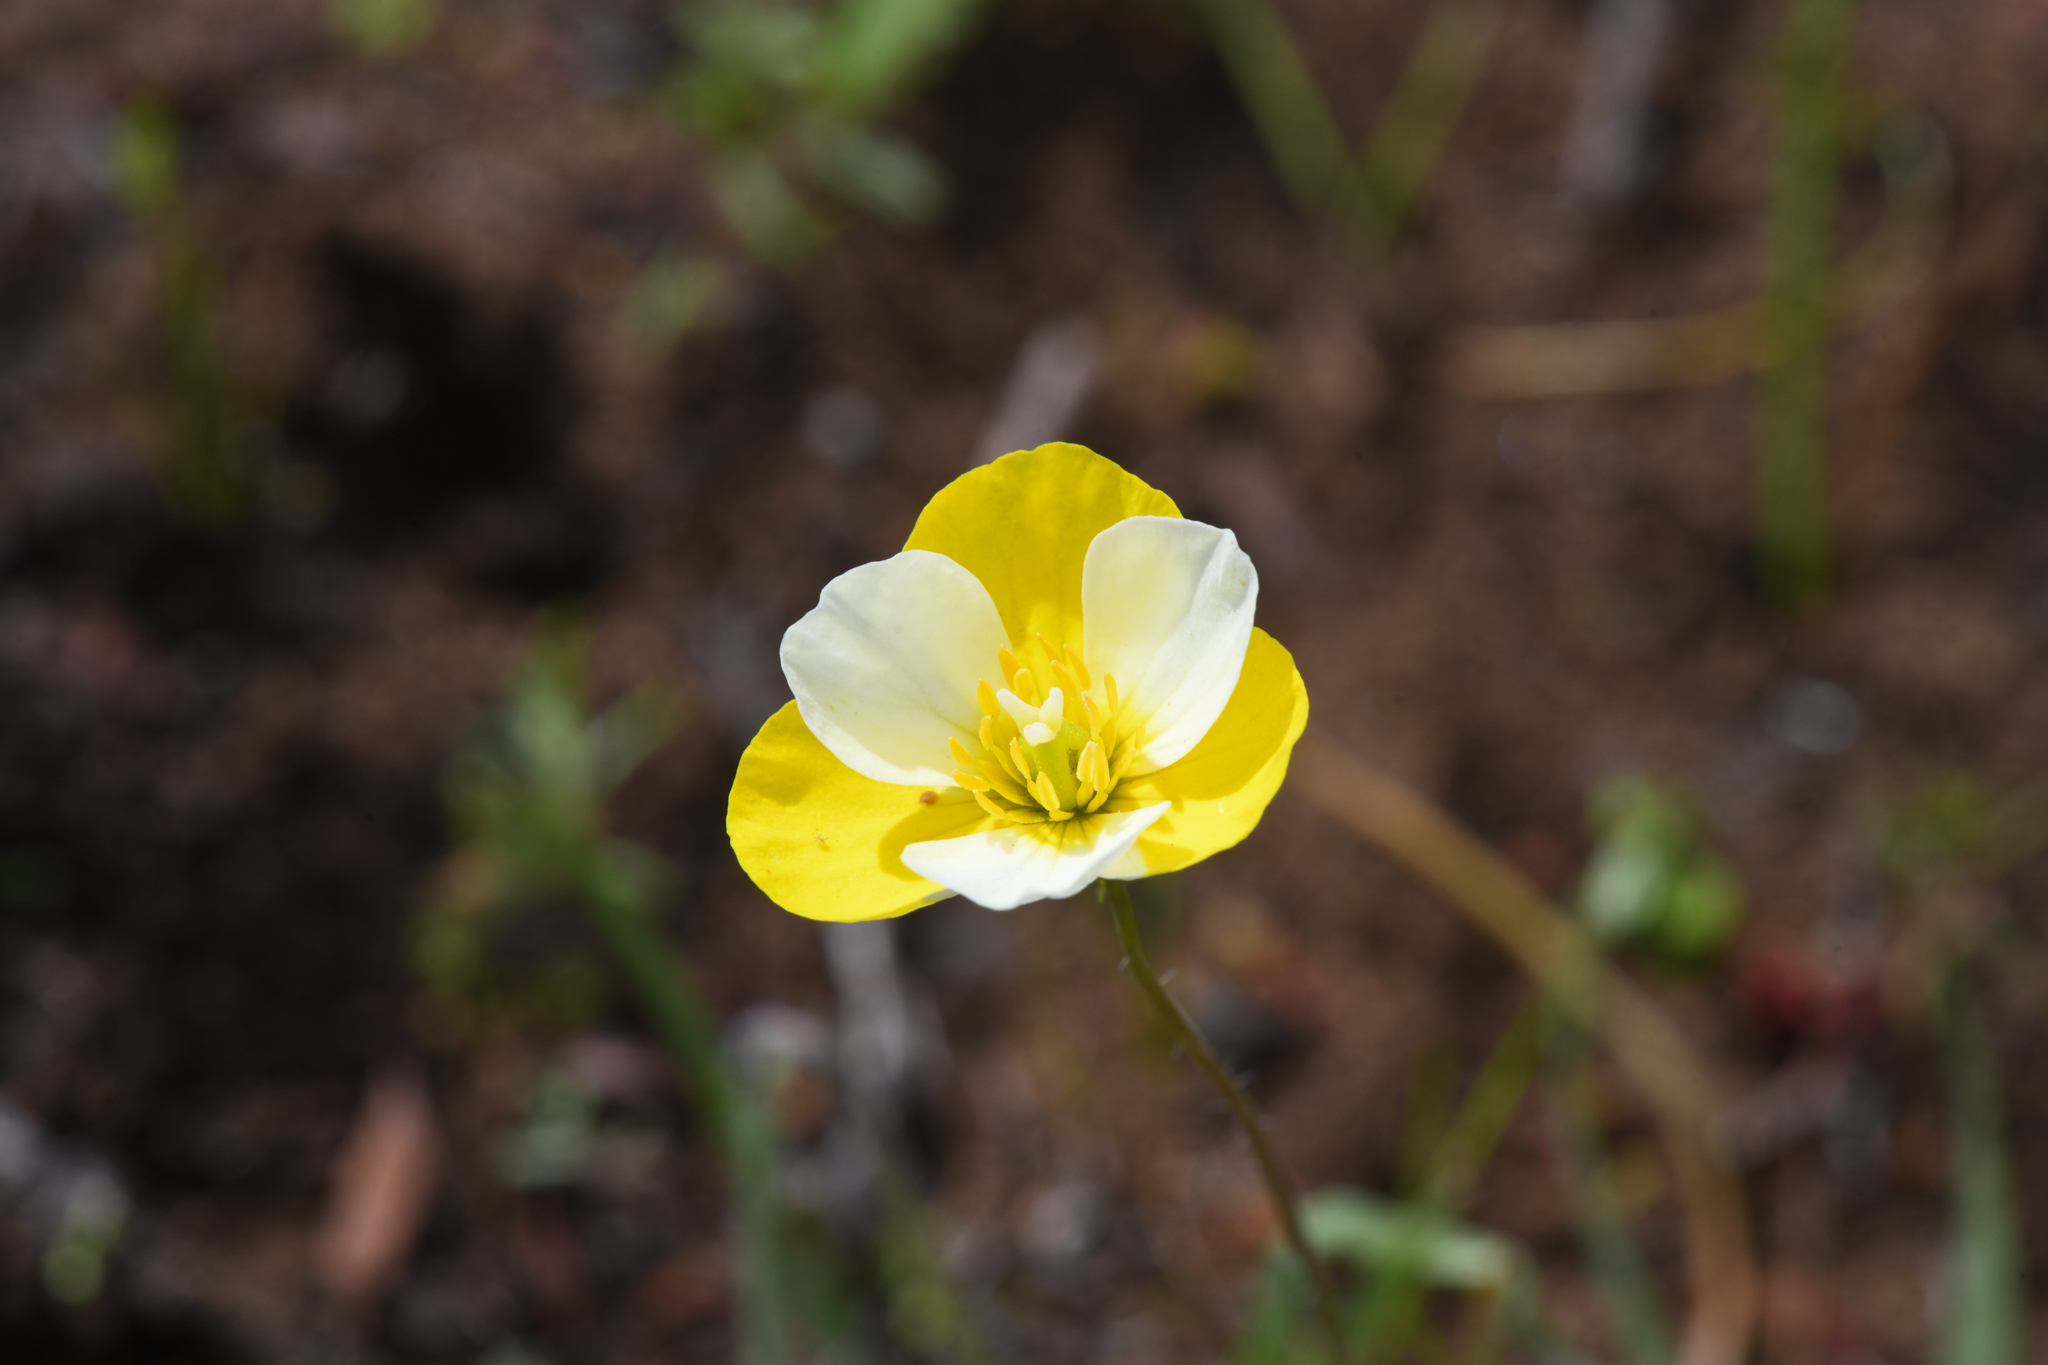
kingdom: Plantae
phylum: Tracheophyta
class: Magnoliopsida
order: Ranunculales
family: Papaveraceae
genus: Platystigma
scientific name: Platystigma lineare
